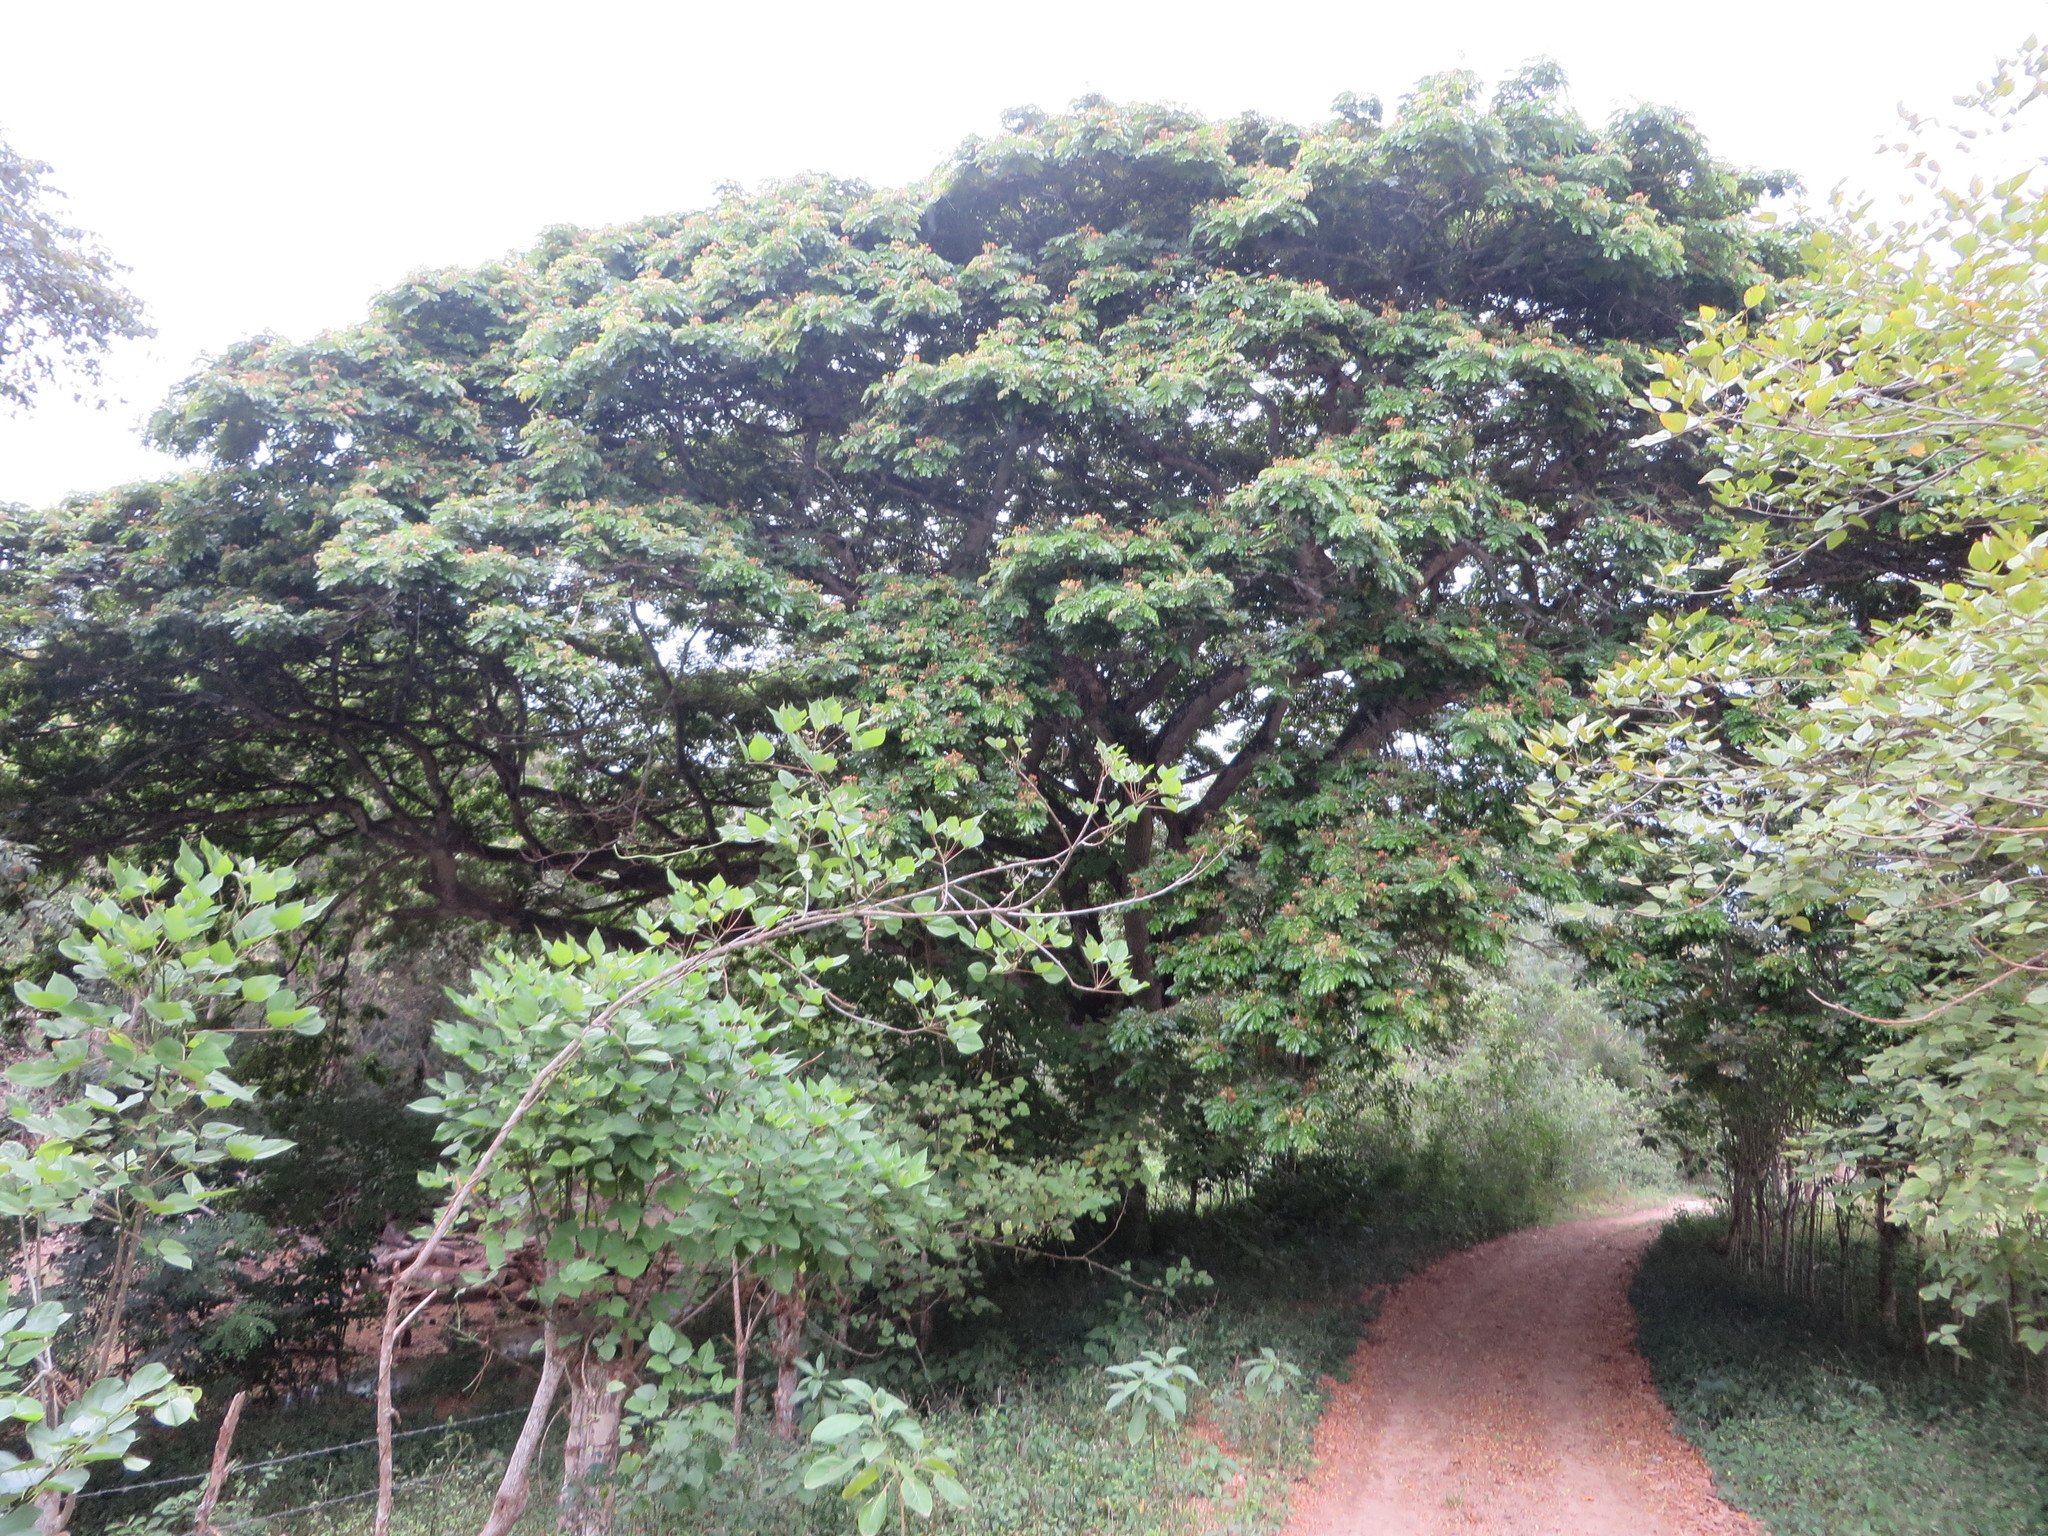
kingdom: Plantae
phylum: Tracheophyta
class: Magnoliopsida
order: Fabales
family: Fabaceae
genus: Samanea
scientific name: Samanea saman
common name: Raintree
